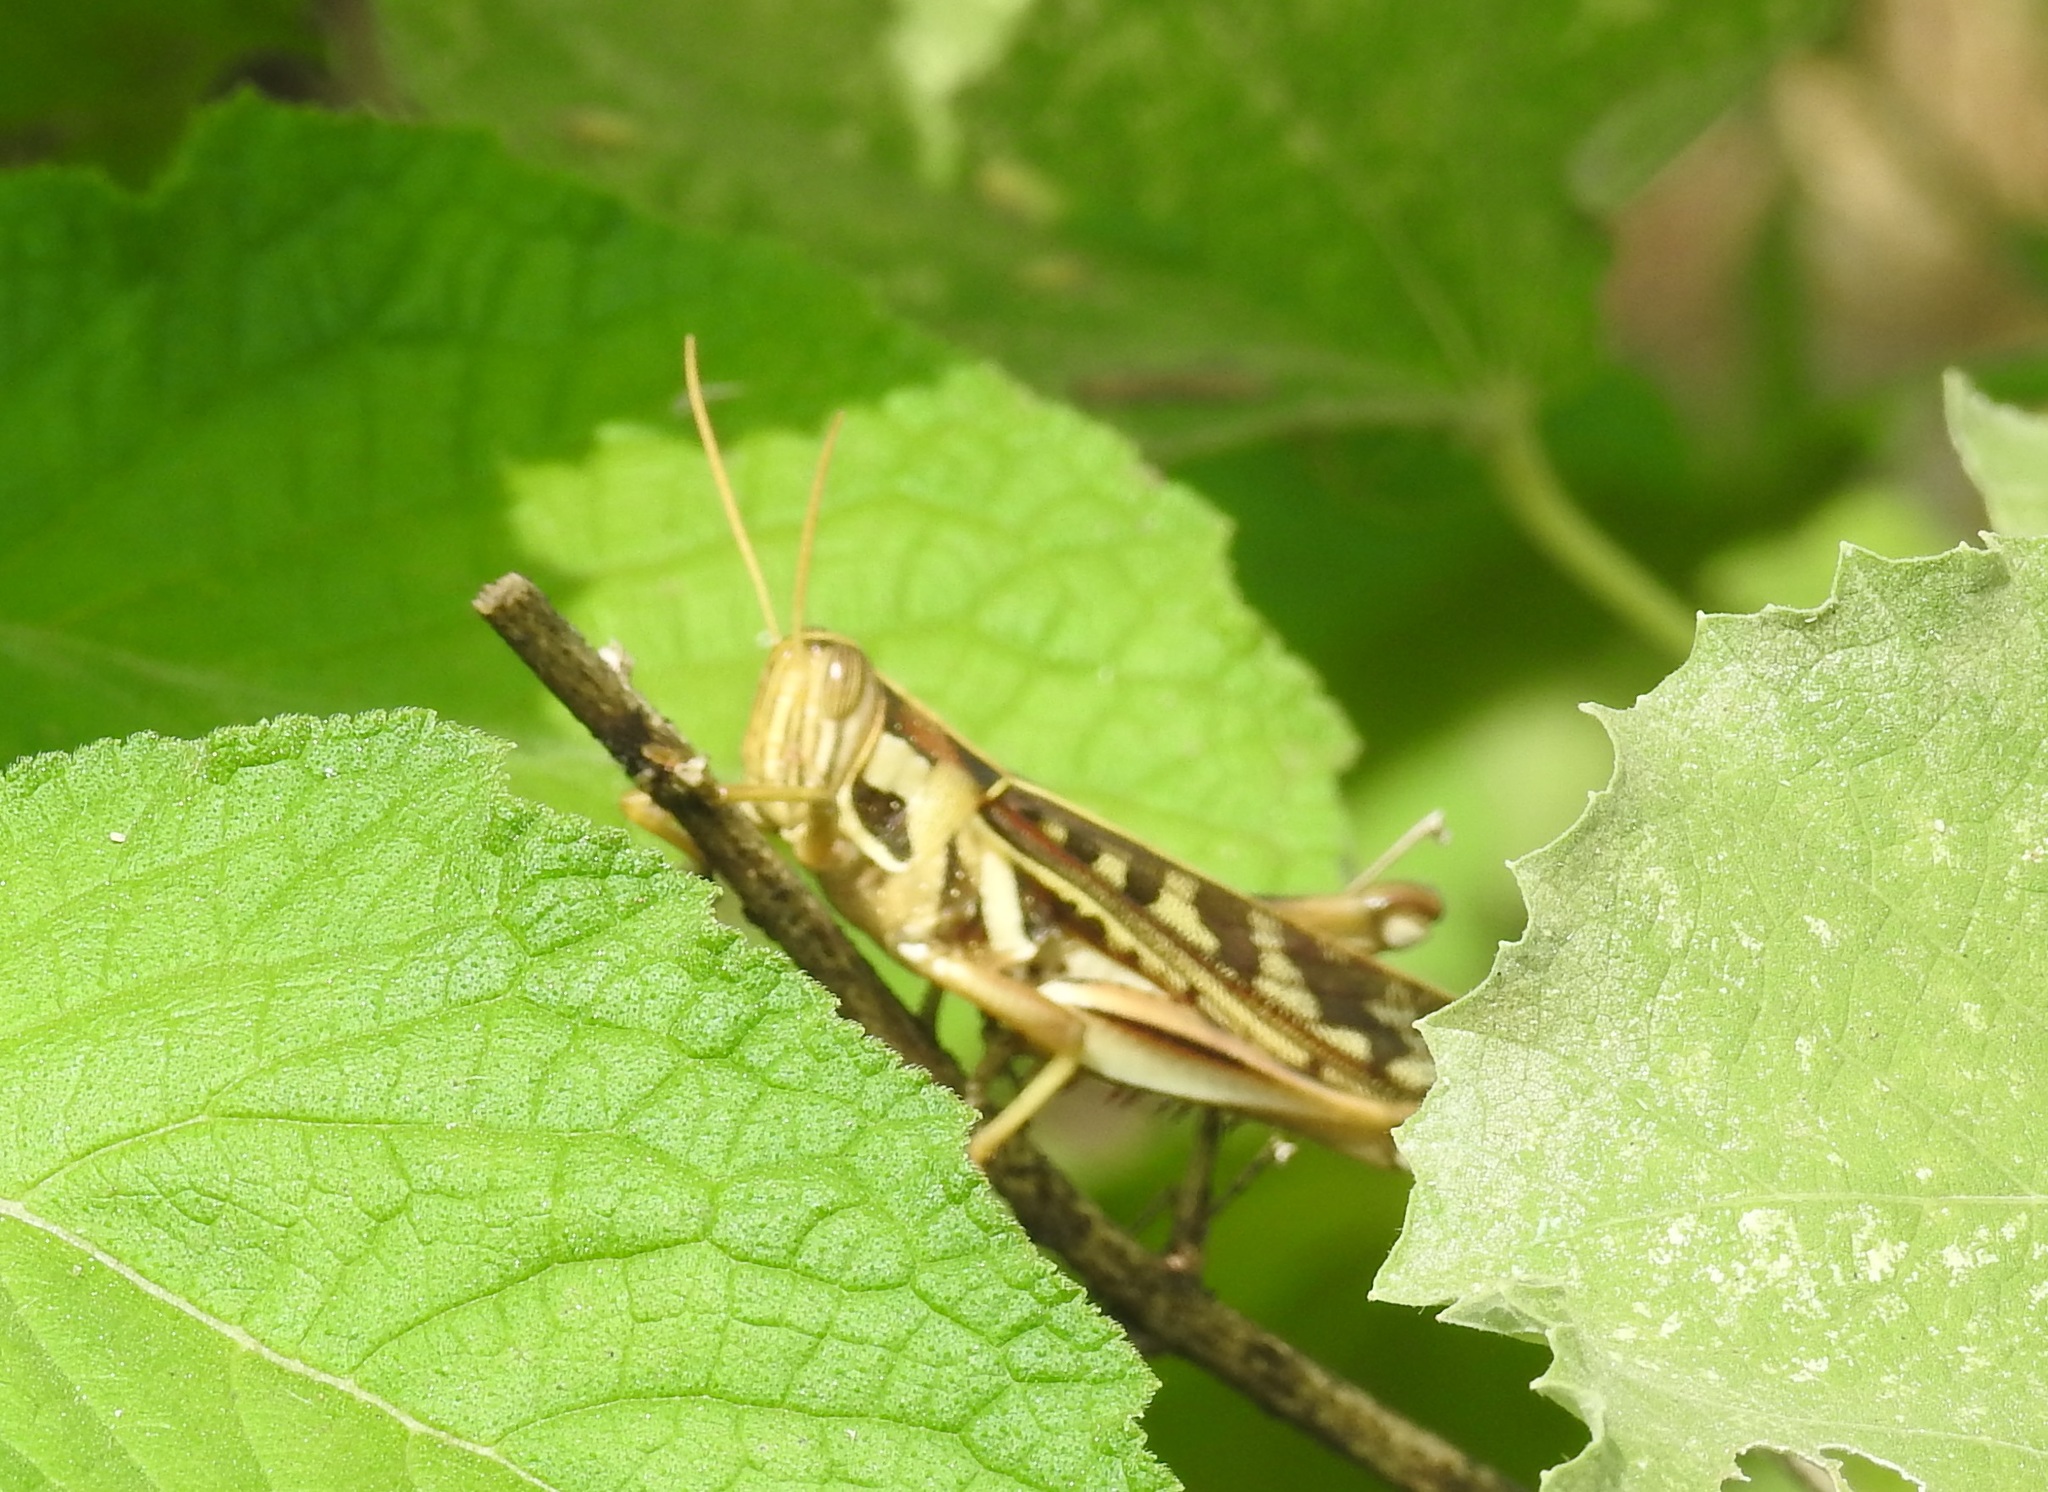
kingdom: Animalia
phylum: Arthropoda
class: Insecta
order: Orthoptera
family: Acrididae
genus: Cyrtacanthacris
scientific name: Cyrtacanthacris tatarica
